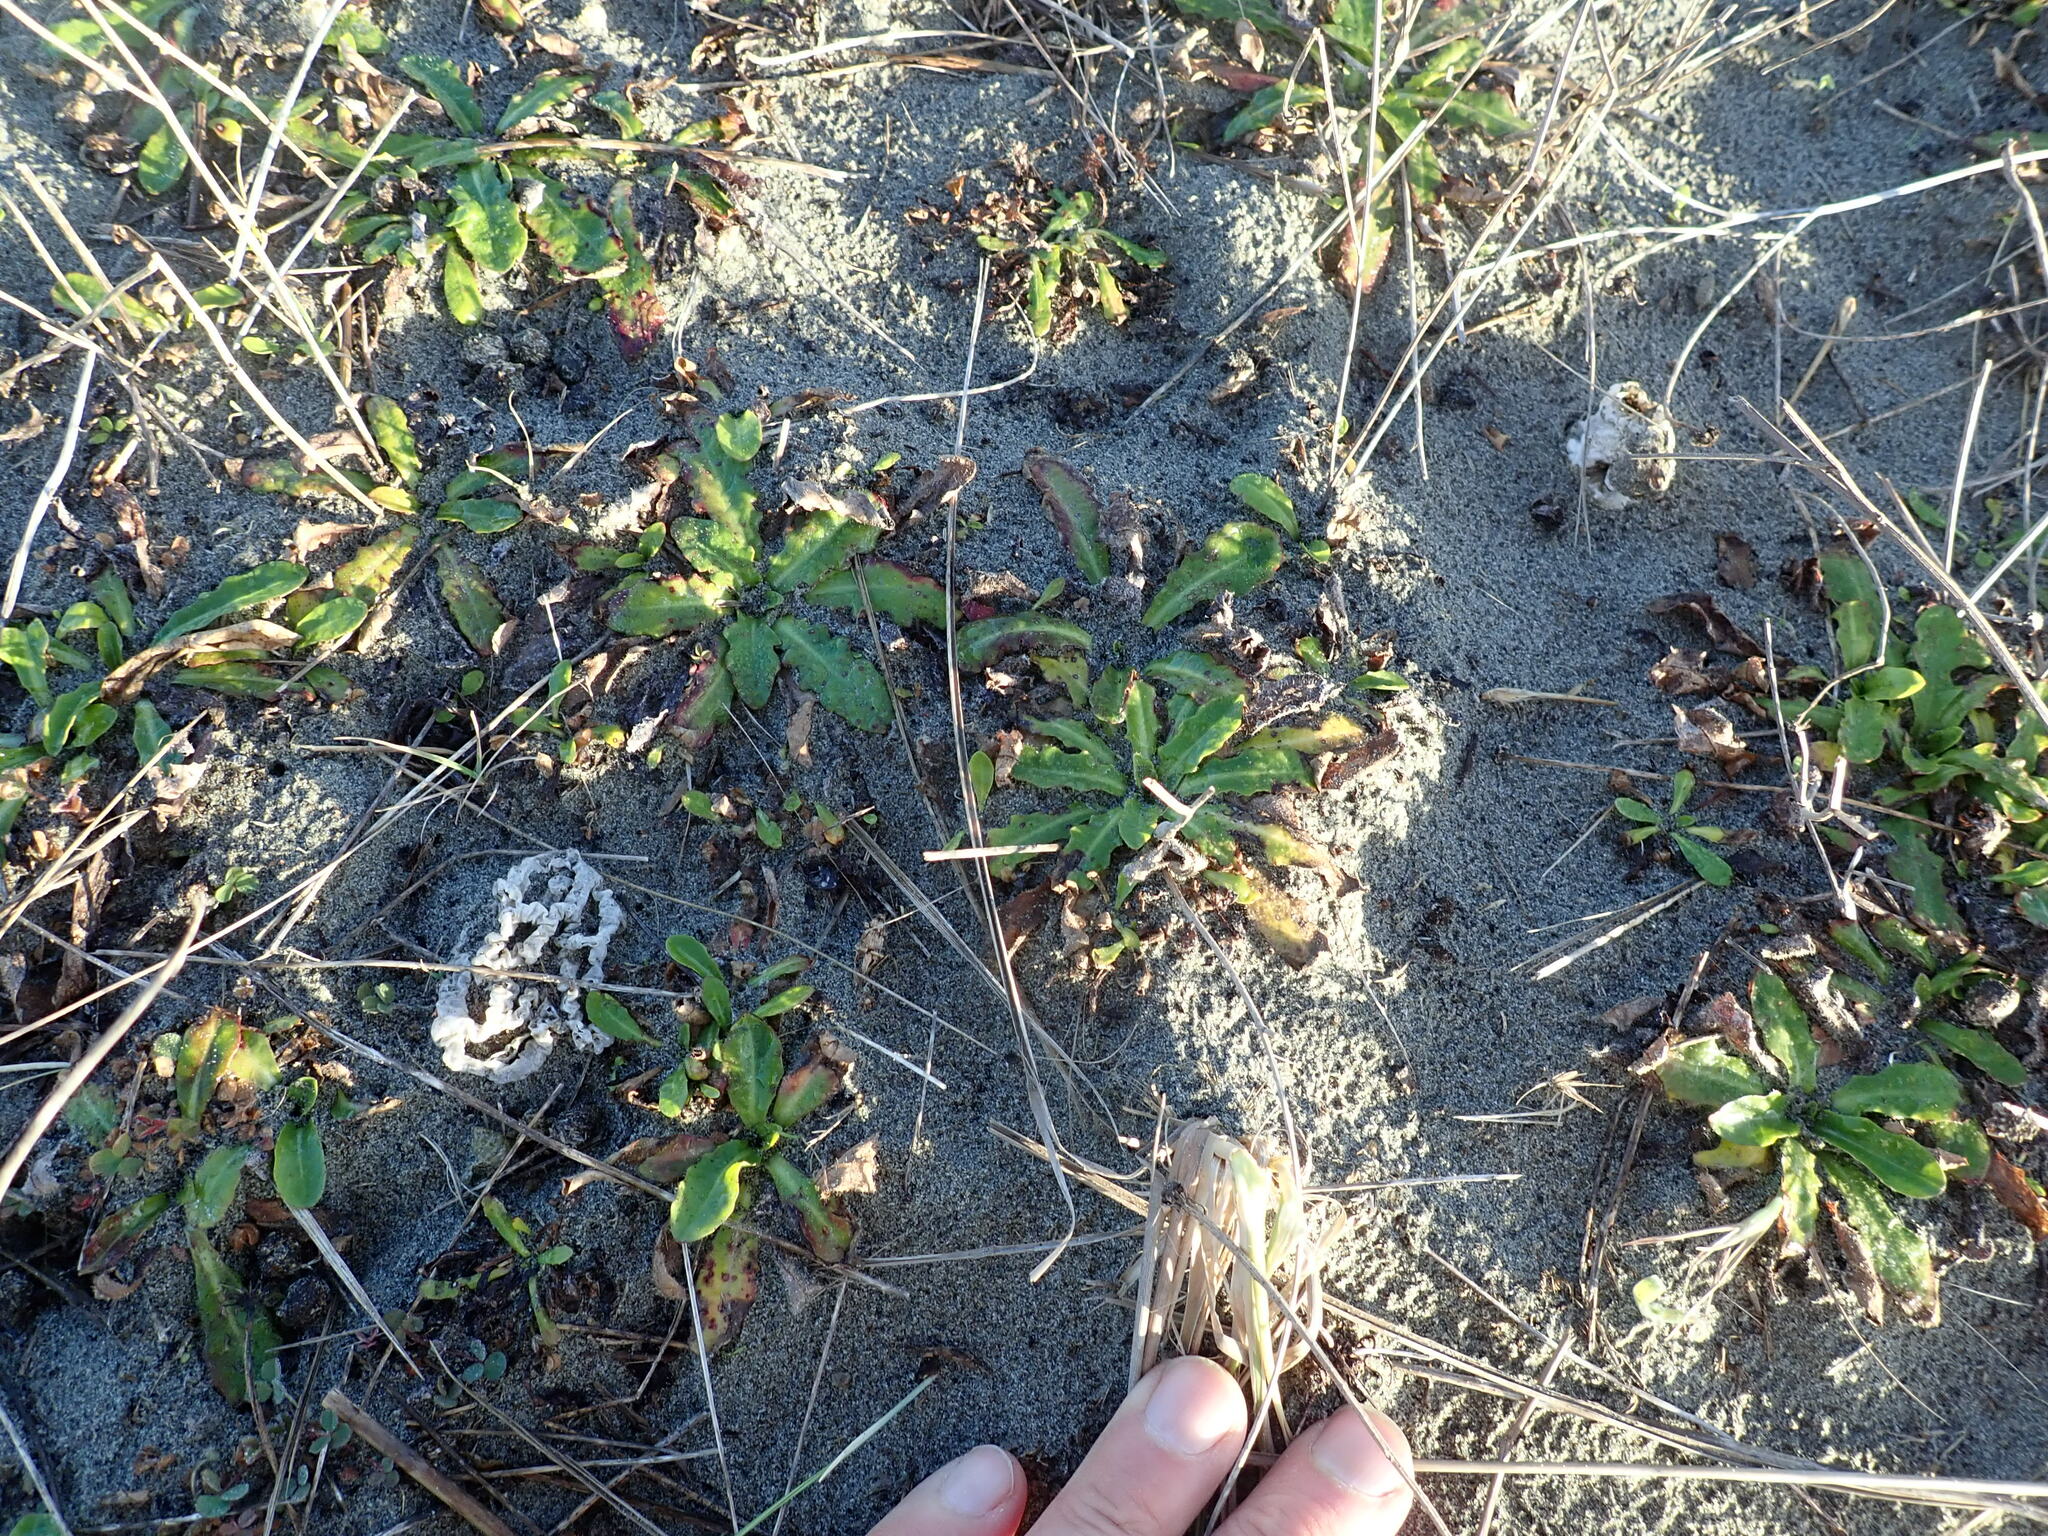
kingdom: Fungi
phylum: Basidiomycota
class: Agaricomycetes
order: Phallales
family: Phallaceae
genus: Ileodictyon
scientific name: Ileodictyon cibarium
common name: Basket fungus
